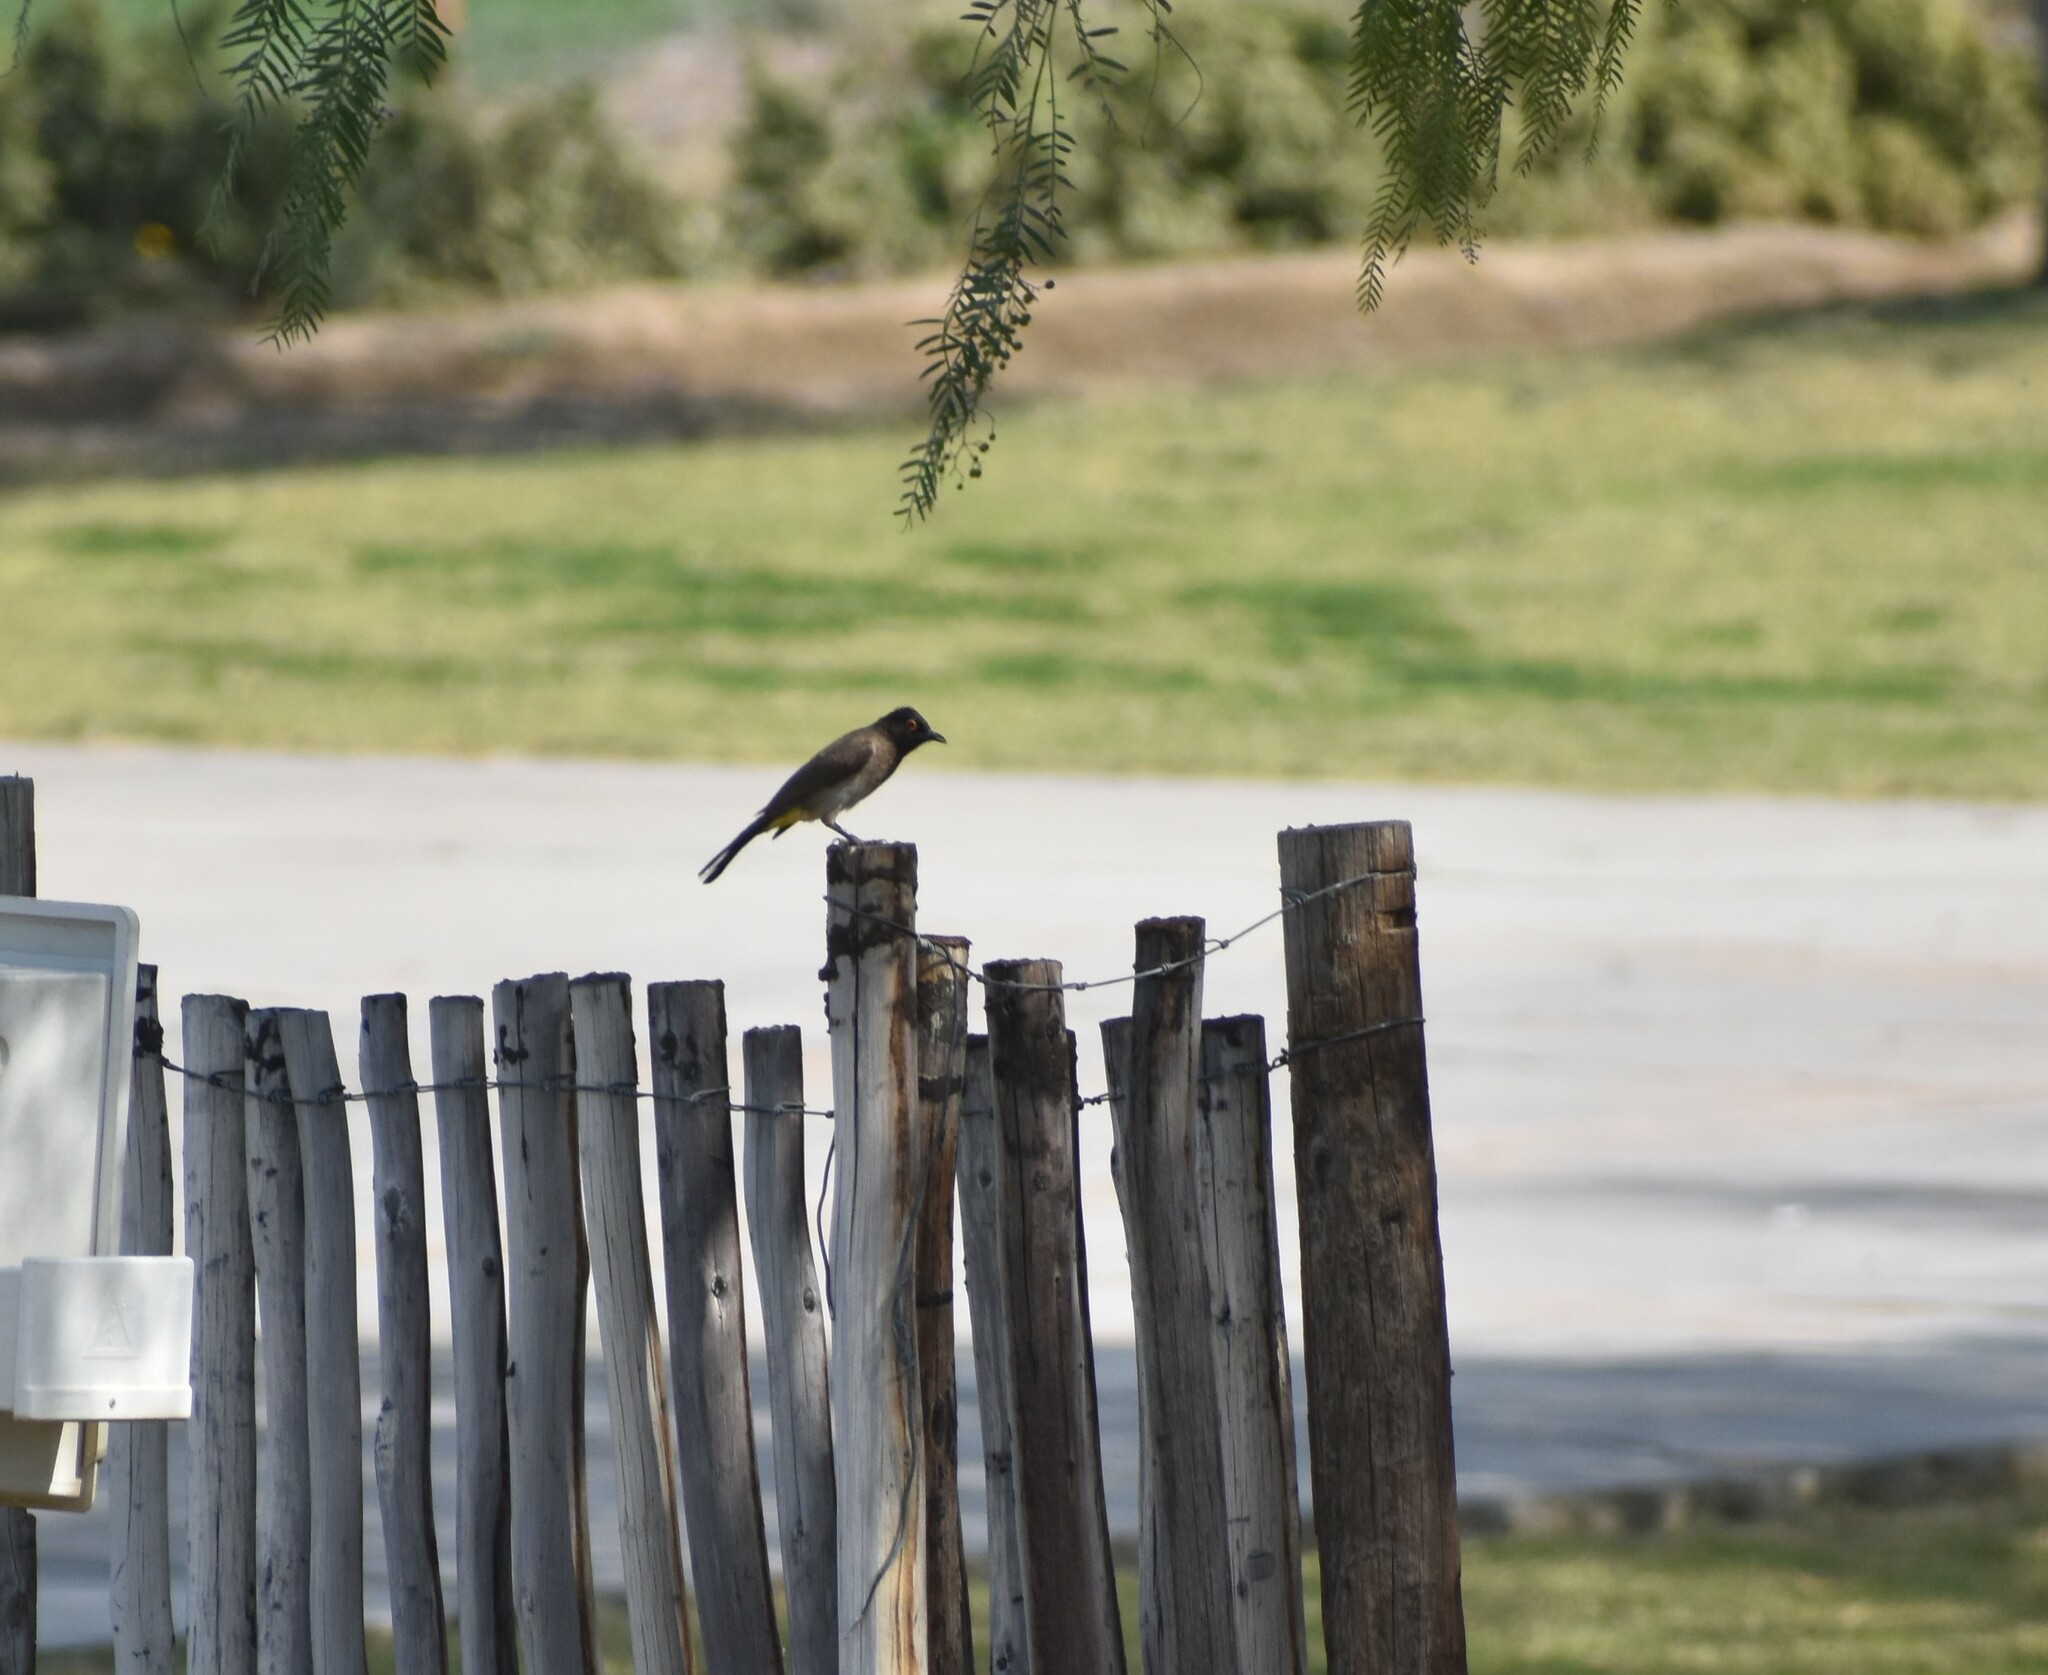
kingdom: Animalia
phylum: Chordata
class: Aves
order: Passeriformes
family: Pycnonotidae
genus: Pycnonotus
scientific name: Pycnonotus nigricans
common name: African red-eyed bulbul
